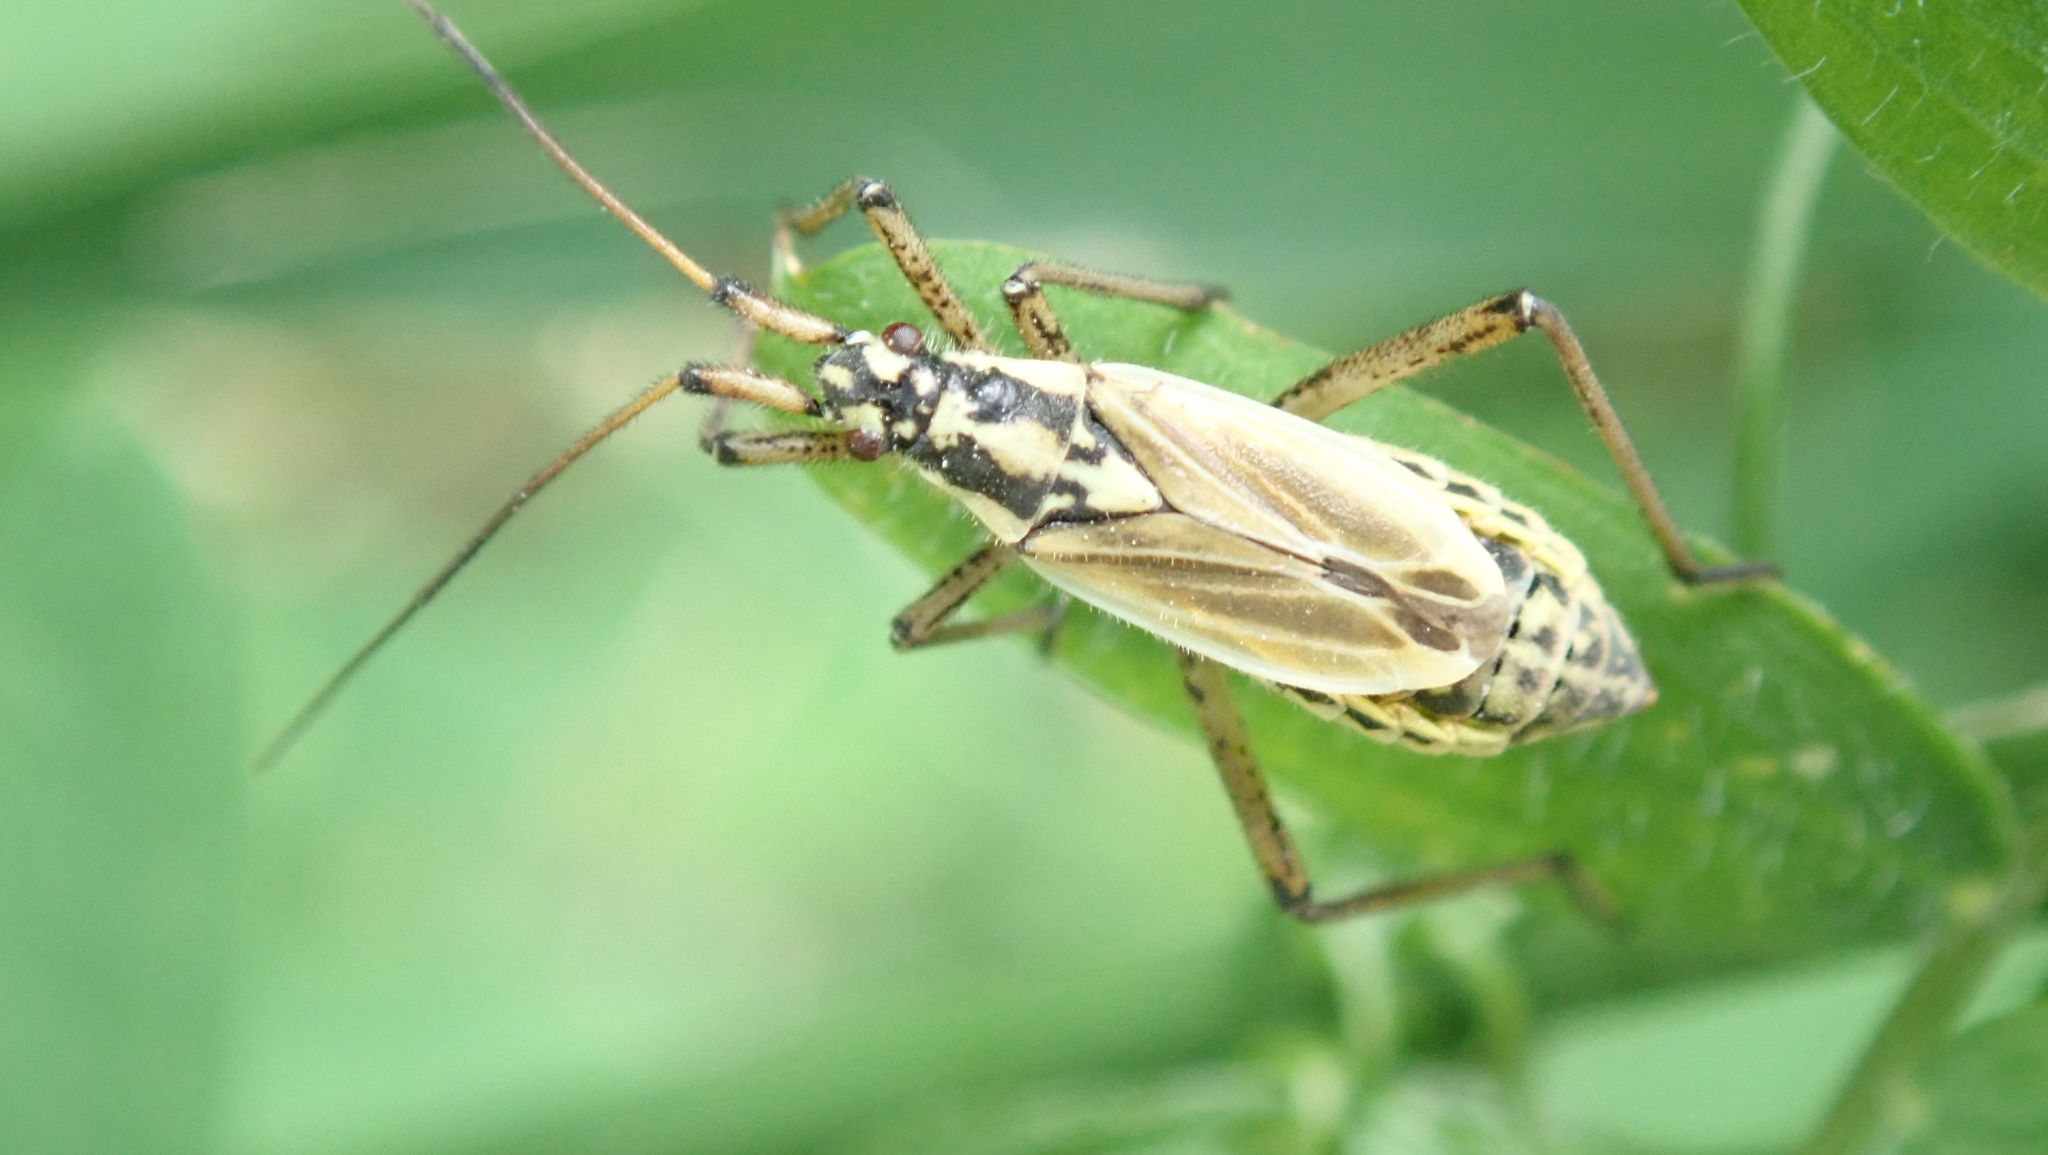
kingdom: Animalia
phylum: Arthropoda
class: Insecta
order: Hemiptera
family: Miridae
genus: Leptopterna
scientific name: Leptopterna dolabrata
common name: Meadow plant bug
